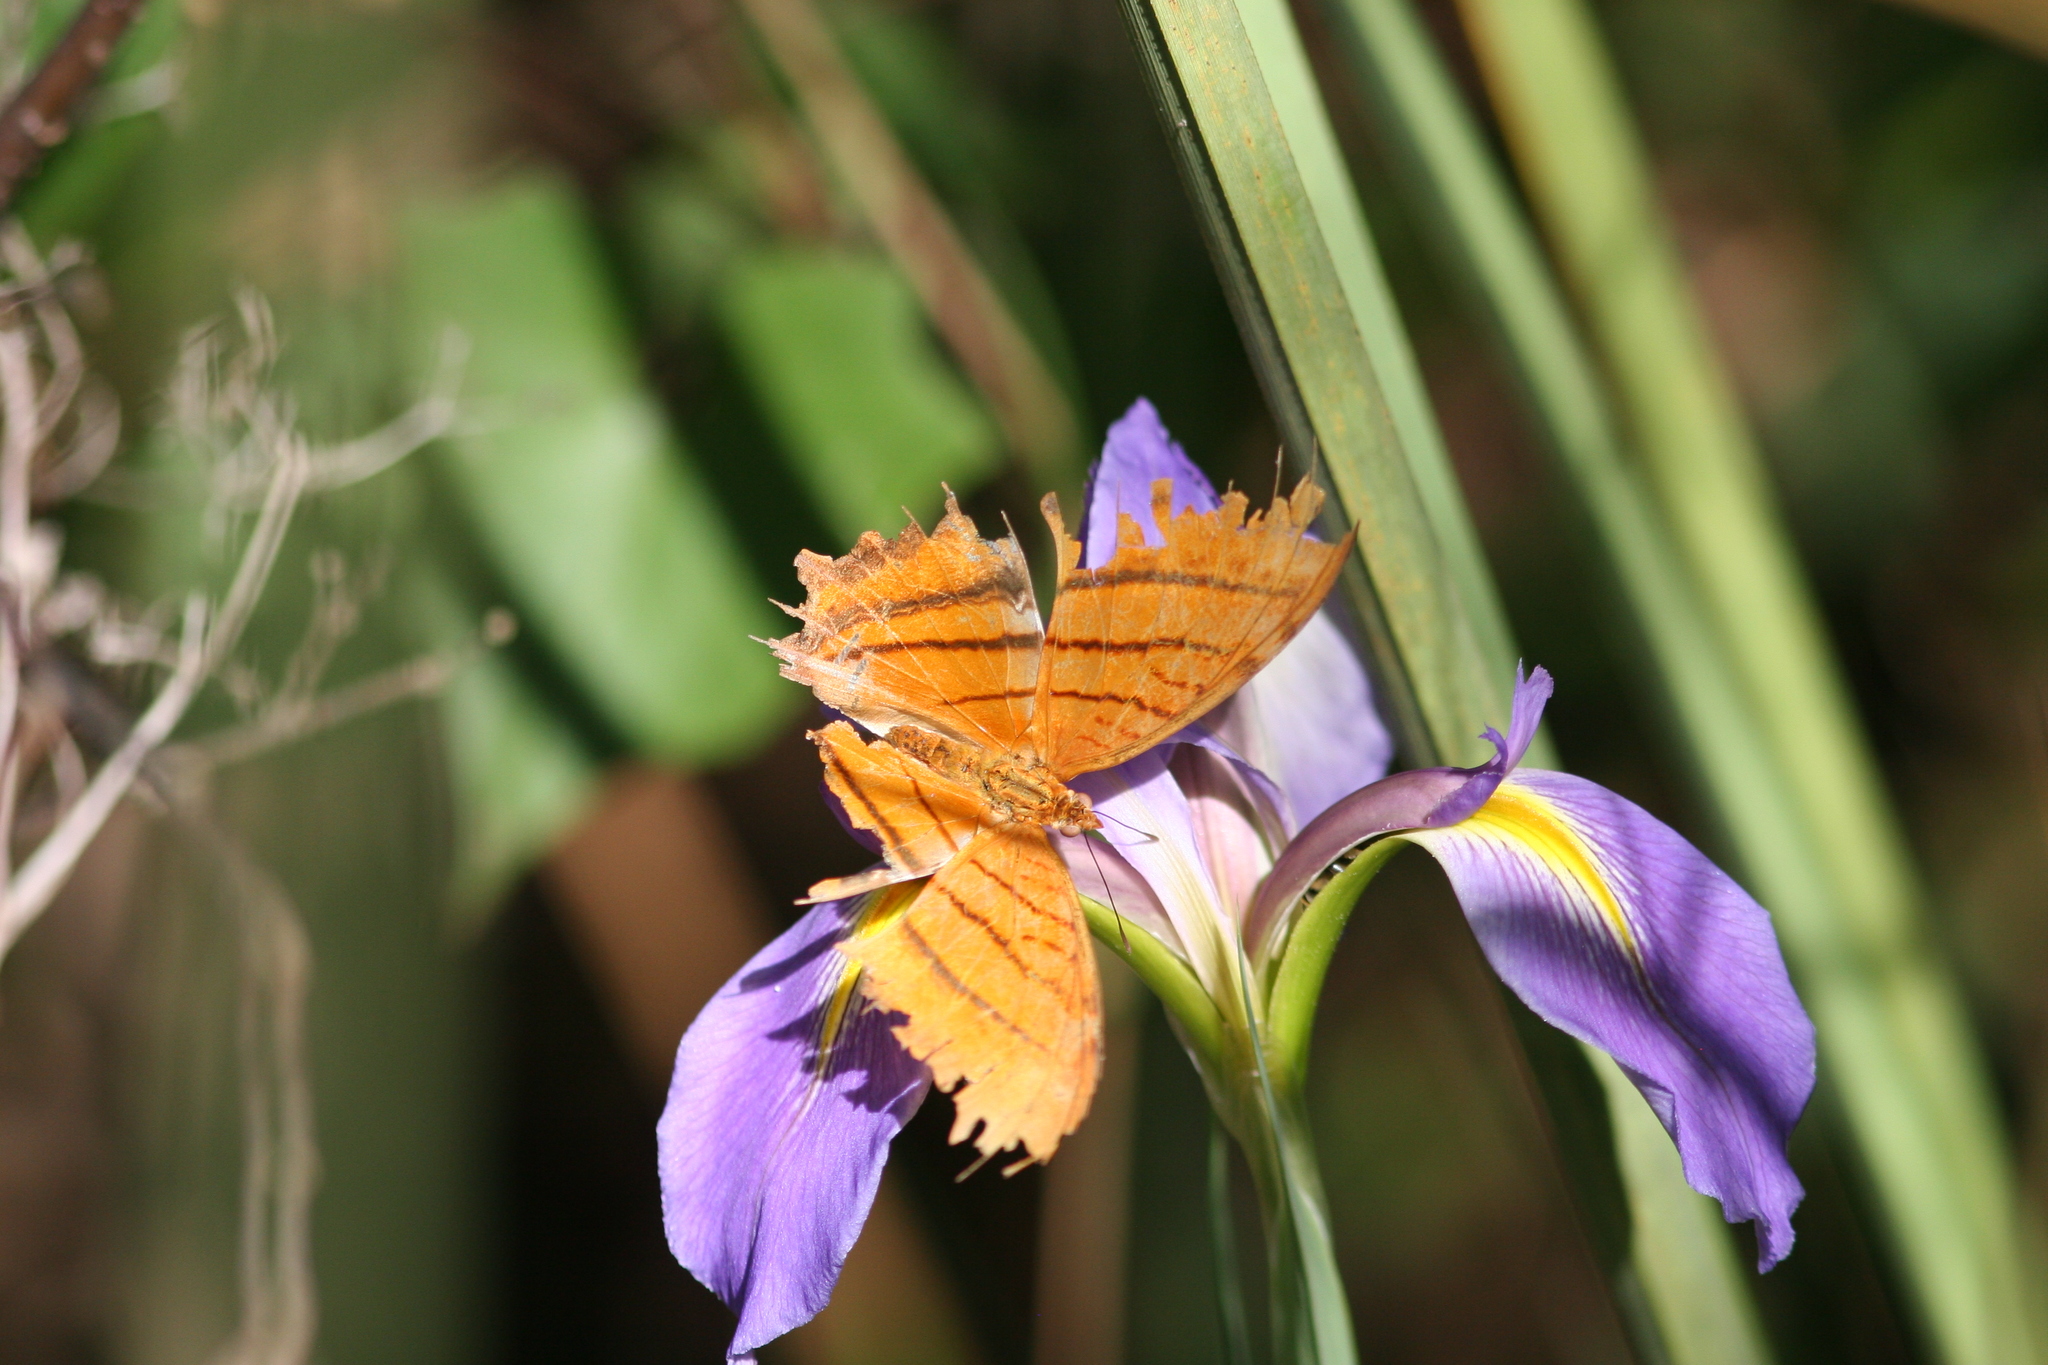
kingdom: Animalia
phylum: Arthropoda
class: Insecta
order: Lepidoptera
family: Nymphalidae
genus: Marpesia
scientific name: Marpesia petreus
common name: Red dagger wing
